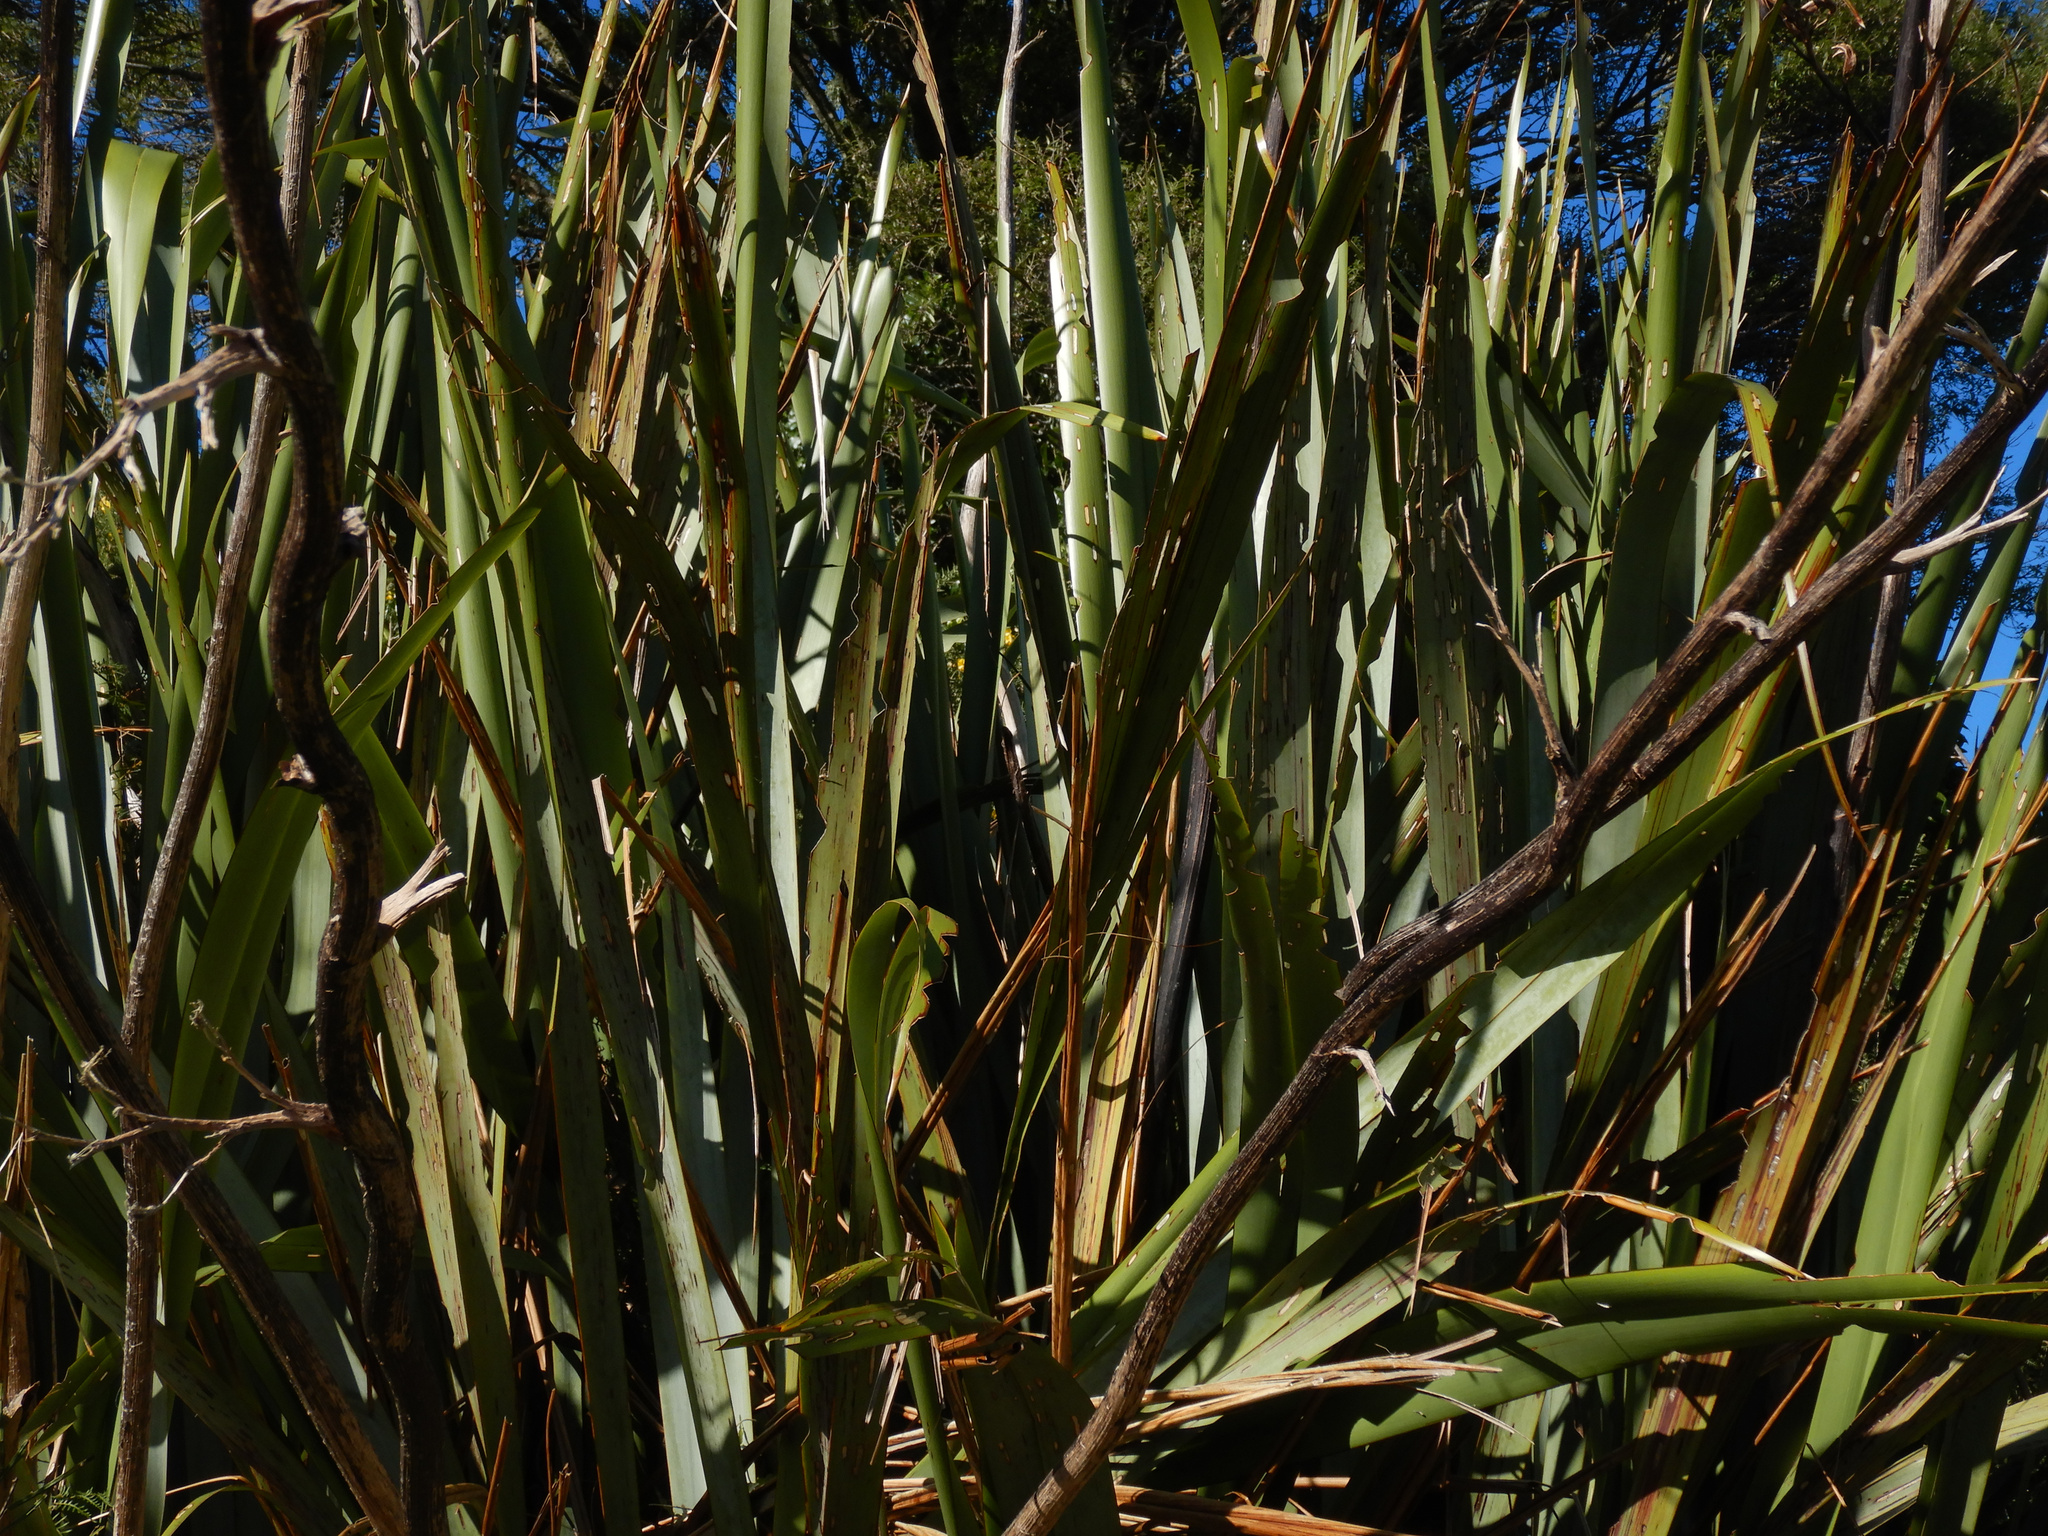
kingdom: Animalia
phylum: Arthropoda
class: Insecta
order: Lepidoptera
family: Geometridae
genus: Orthoclydon
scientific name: Orthoclydon praefectata
